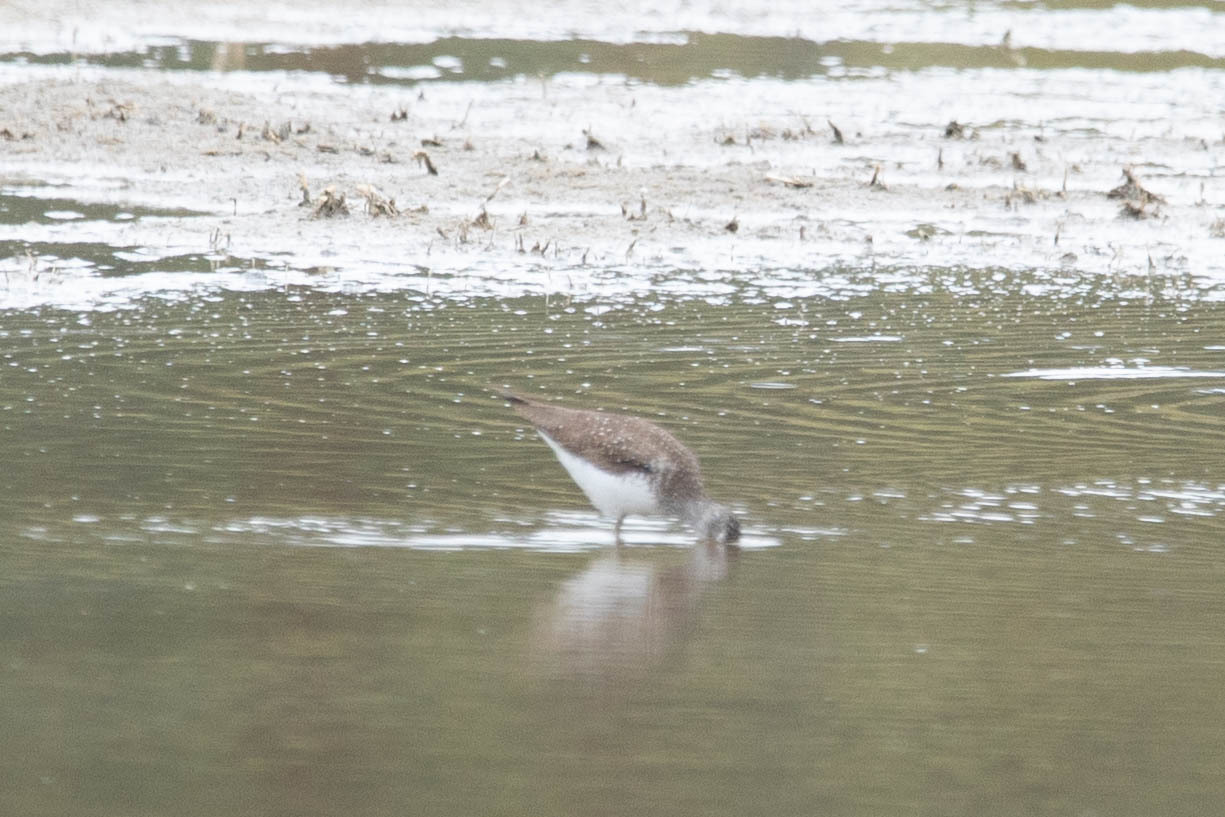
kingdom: Animalia
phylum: Chordata
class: Aves
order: Charadriiformes
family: Scolopacidae
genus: Tringa
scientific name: Tringa solitaria
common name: Solitary sandpiper
